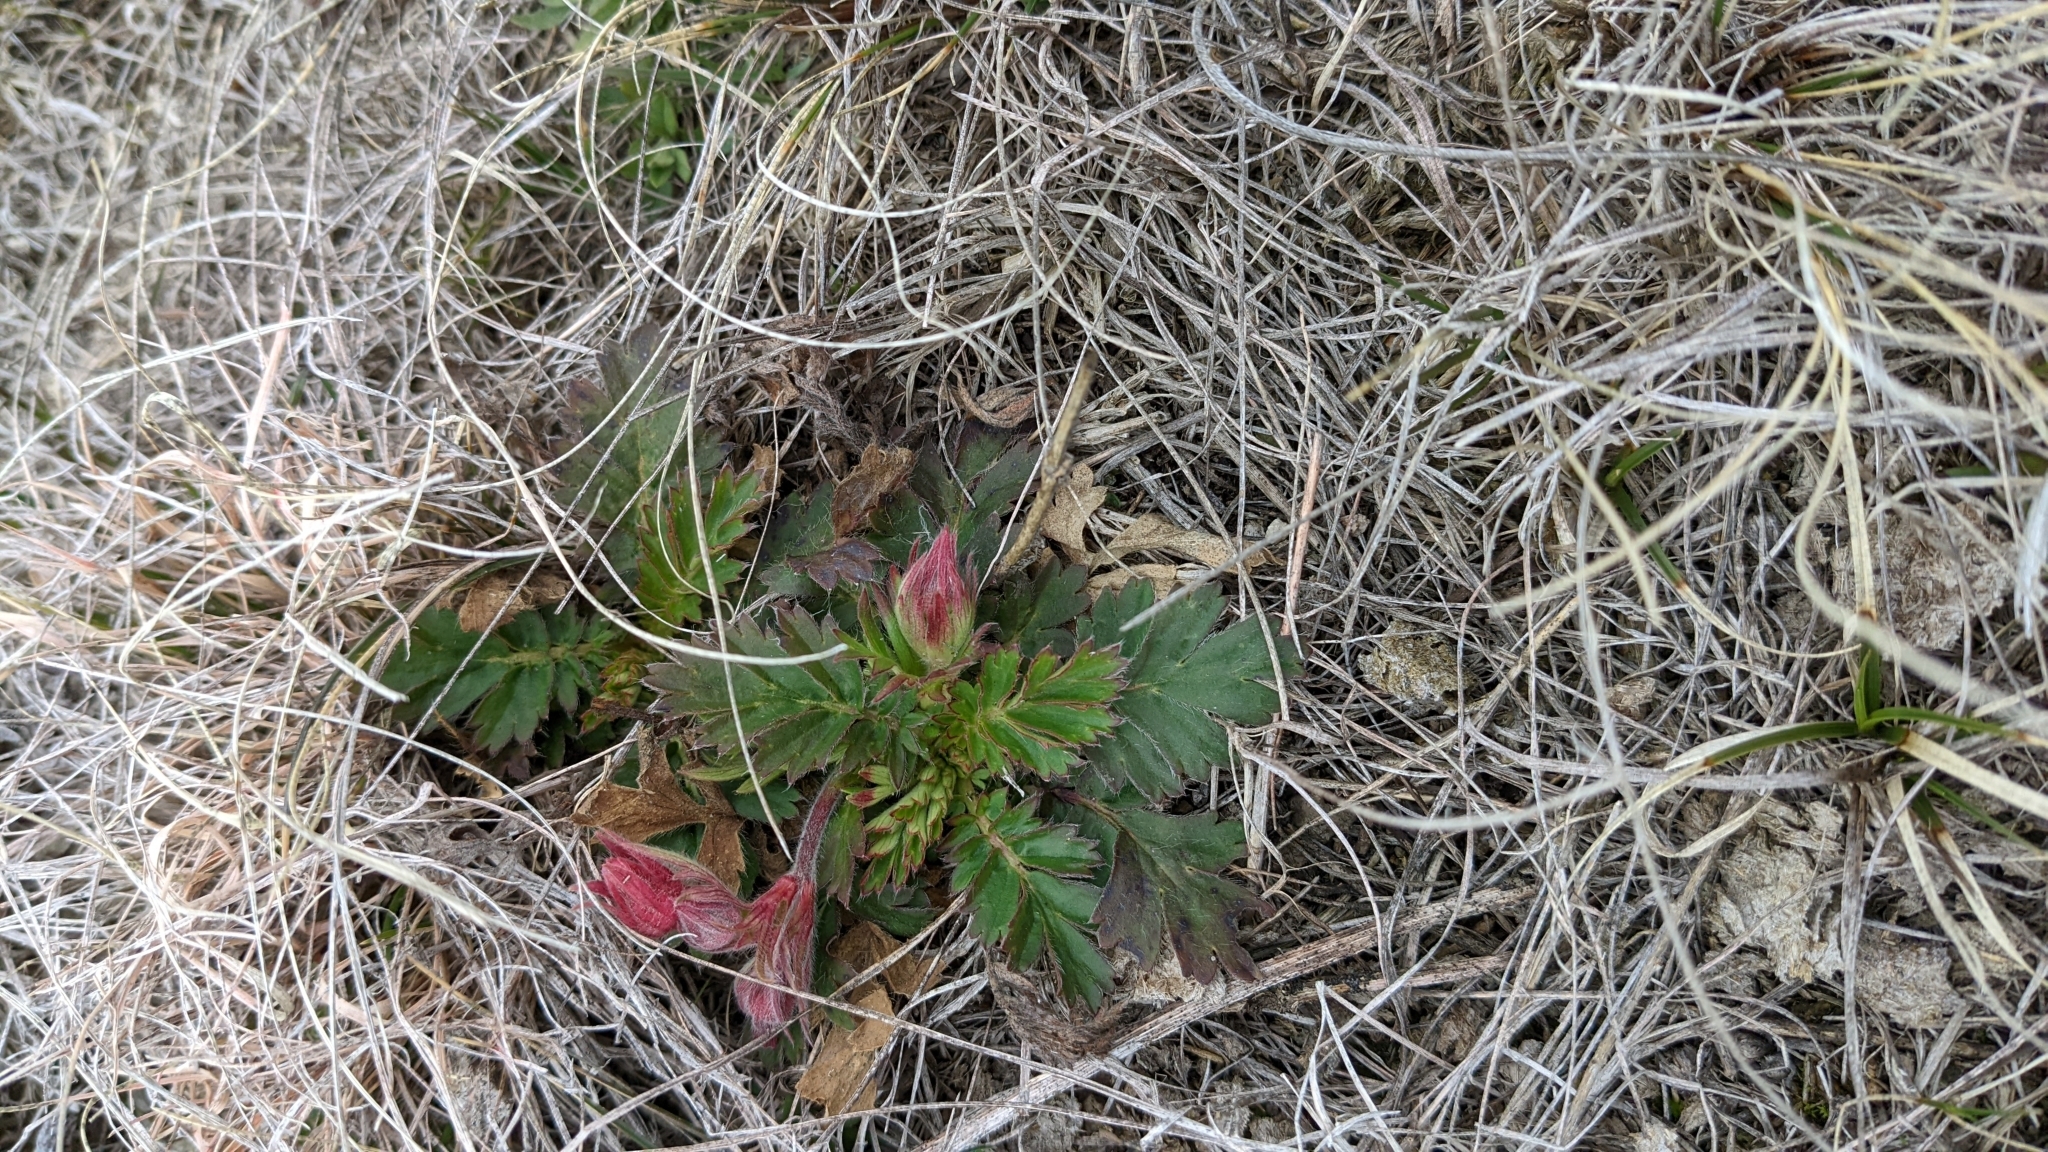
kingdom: Plantae
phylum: Tracheophyta
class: Magnoliopsida
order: Rosales
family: Rosaceae
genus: Geum
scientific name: Geum triflorum
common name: Old man's whiskers
